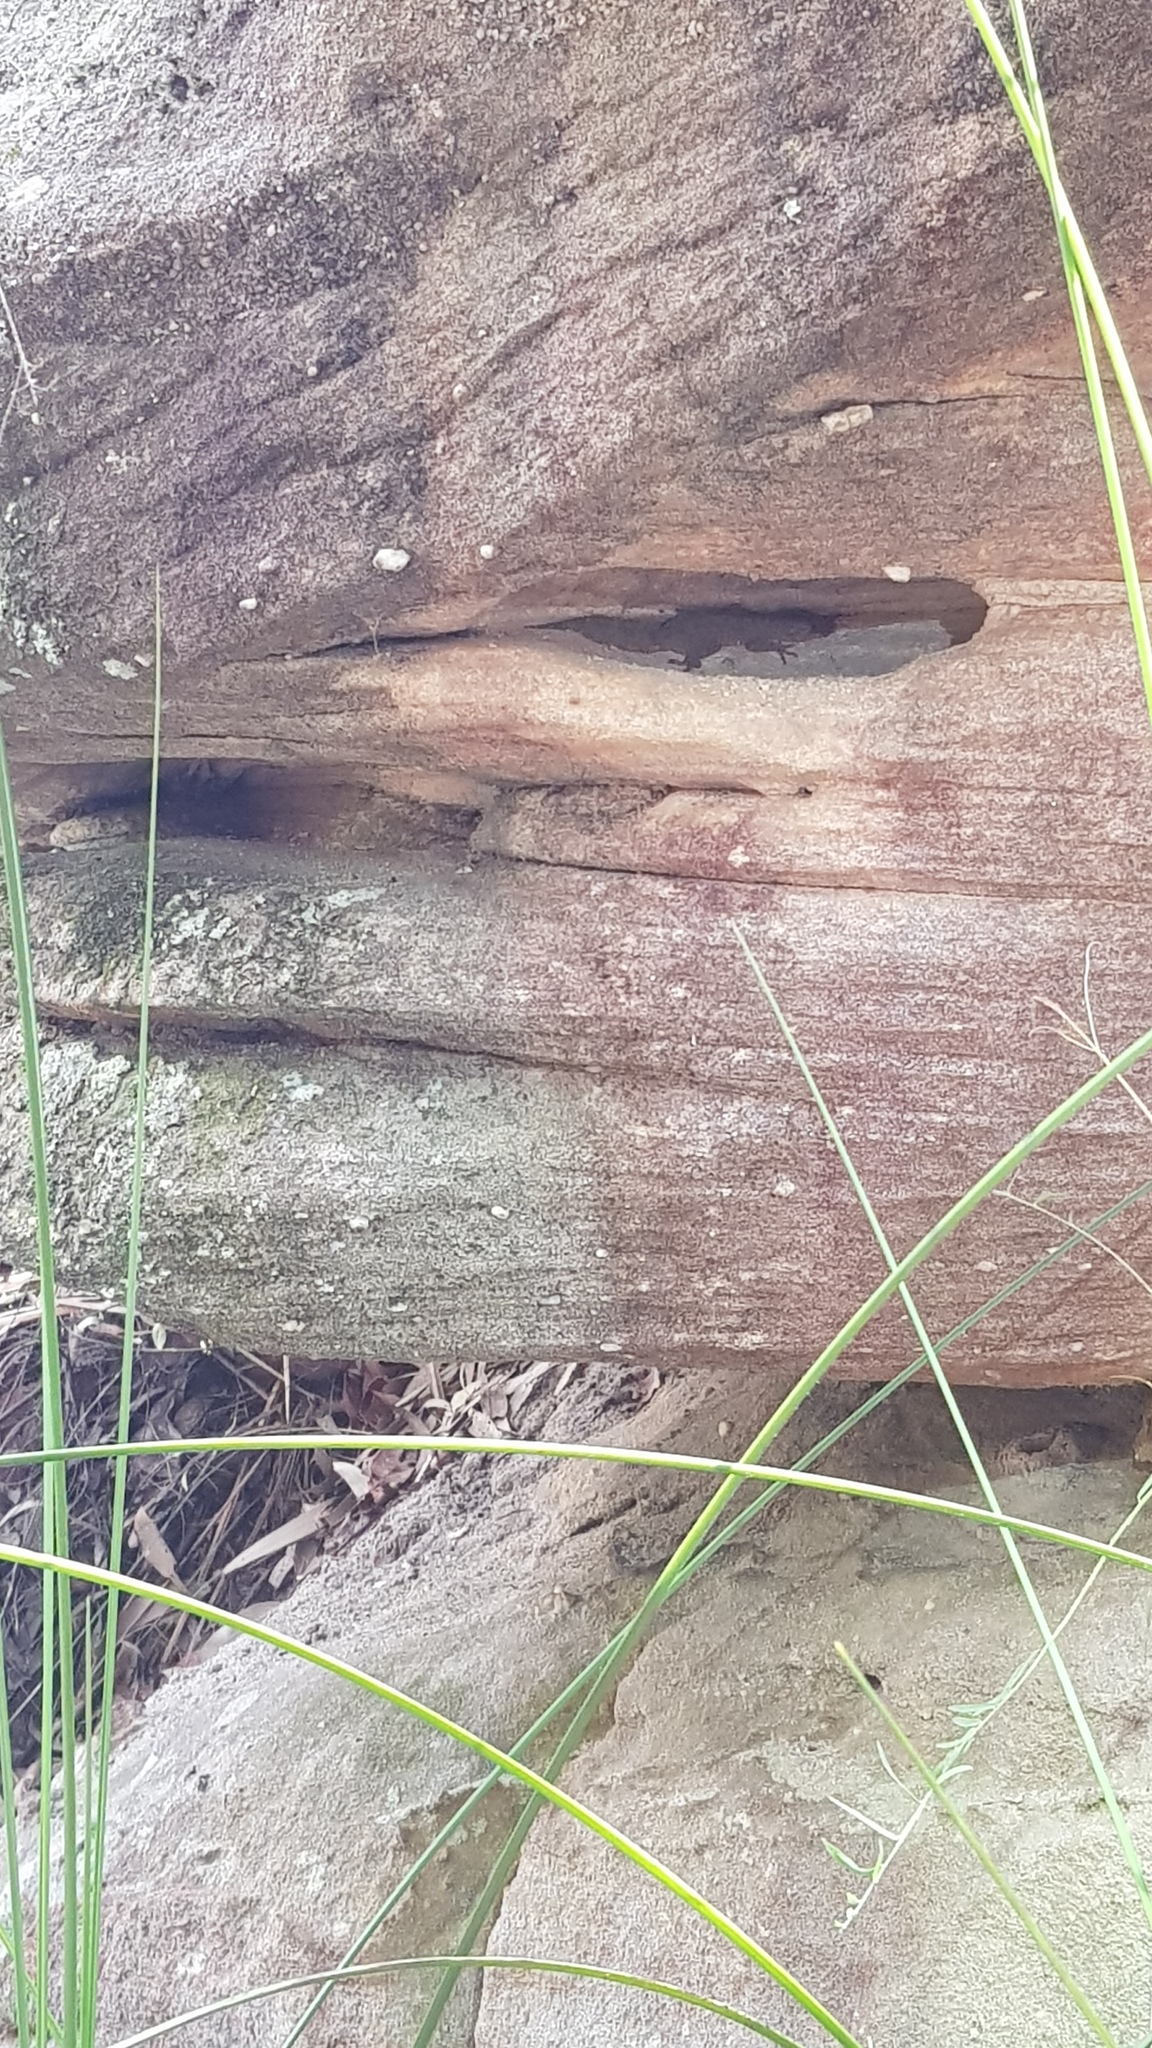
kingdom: Animalia
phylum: Chordata
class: Squamata
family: Carphodactylidae
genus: Phyllurus
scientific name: Phyllurus platurus
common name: Broad-tailed gecko
